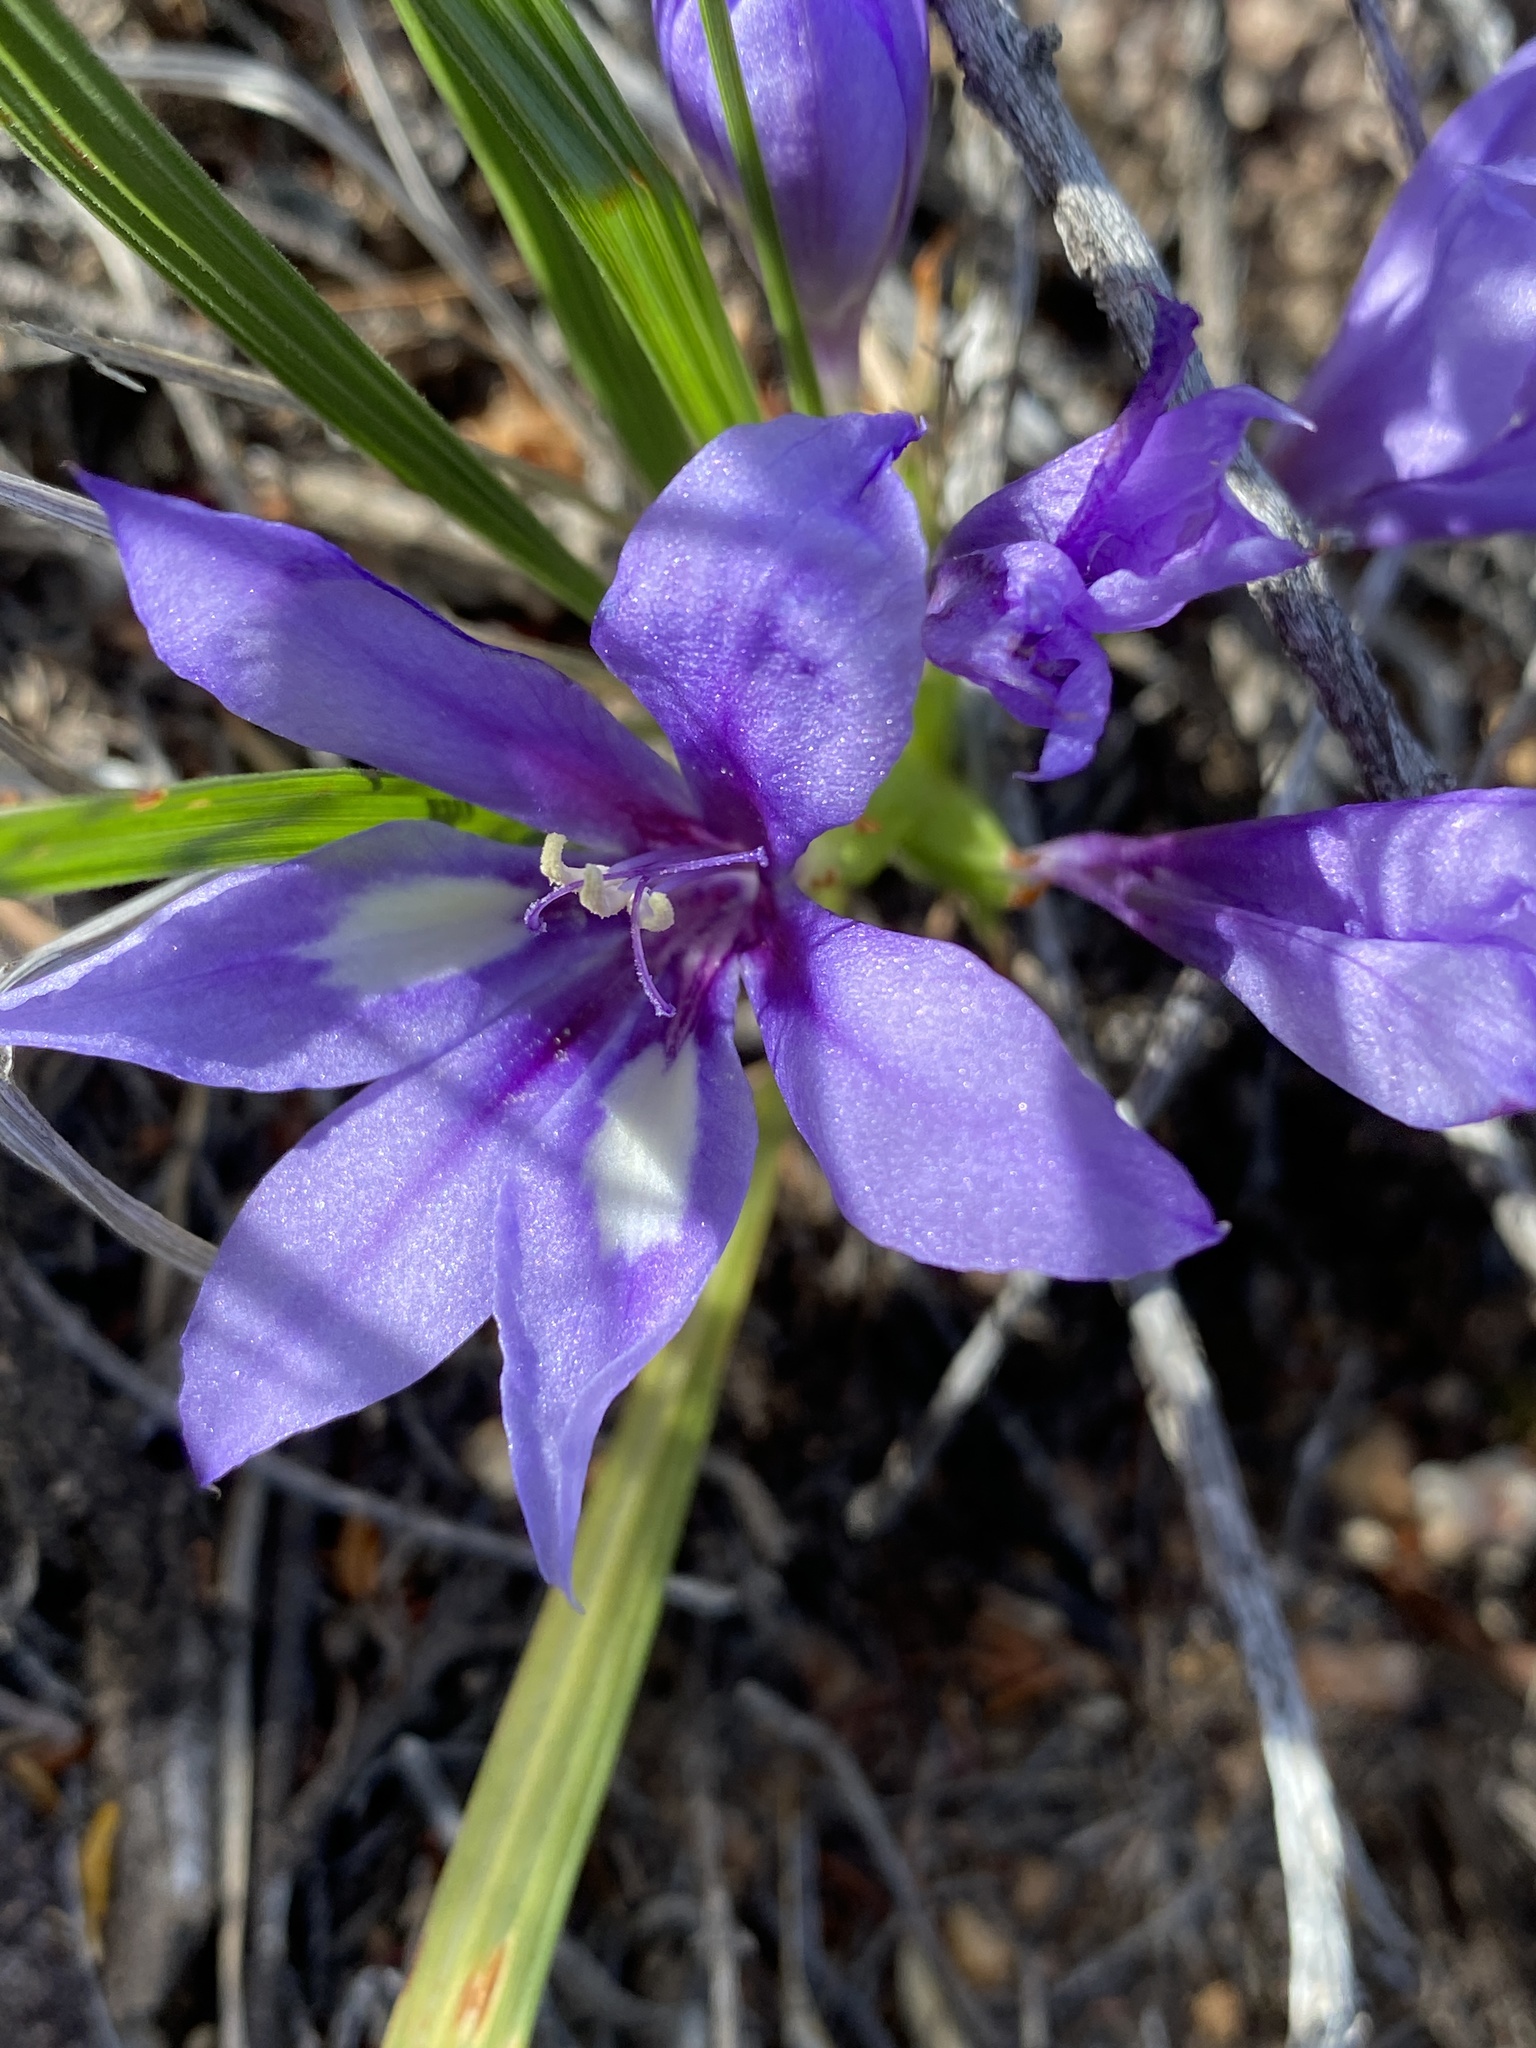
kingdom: Plantae
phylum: Tracheophyta
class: Liliopsida
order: Asparagales
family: Iridaceae
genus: Babiana
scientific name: Babiana sambucina
